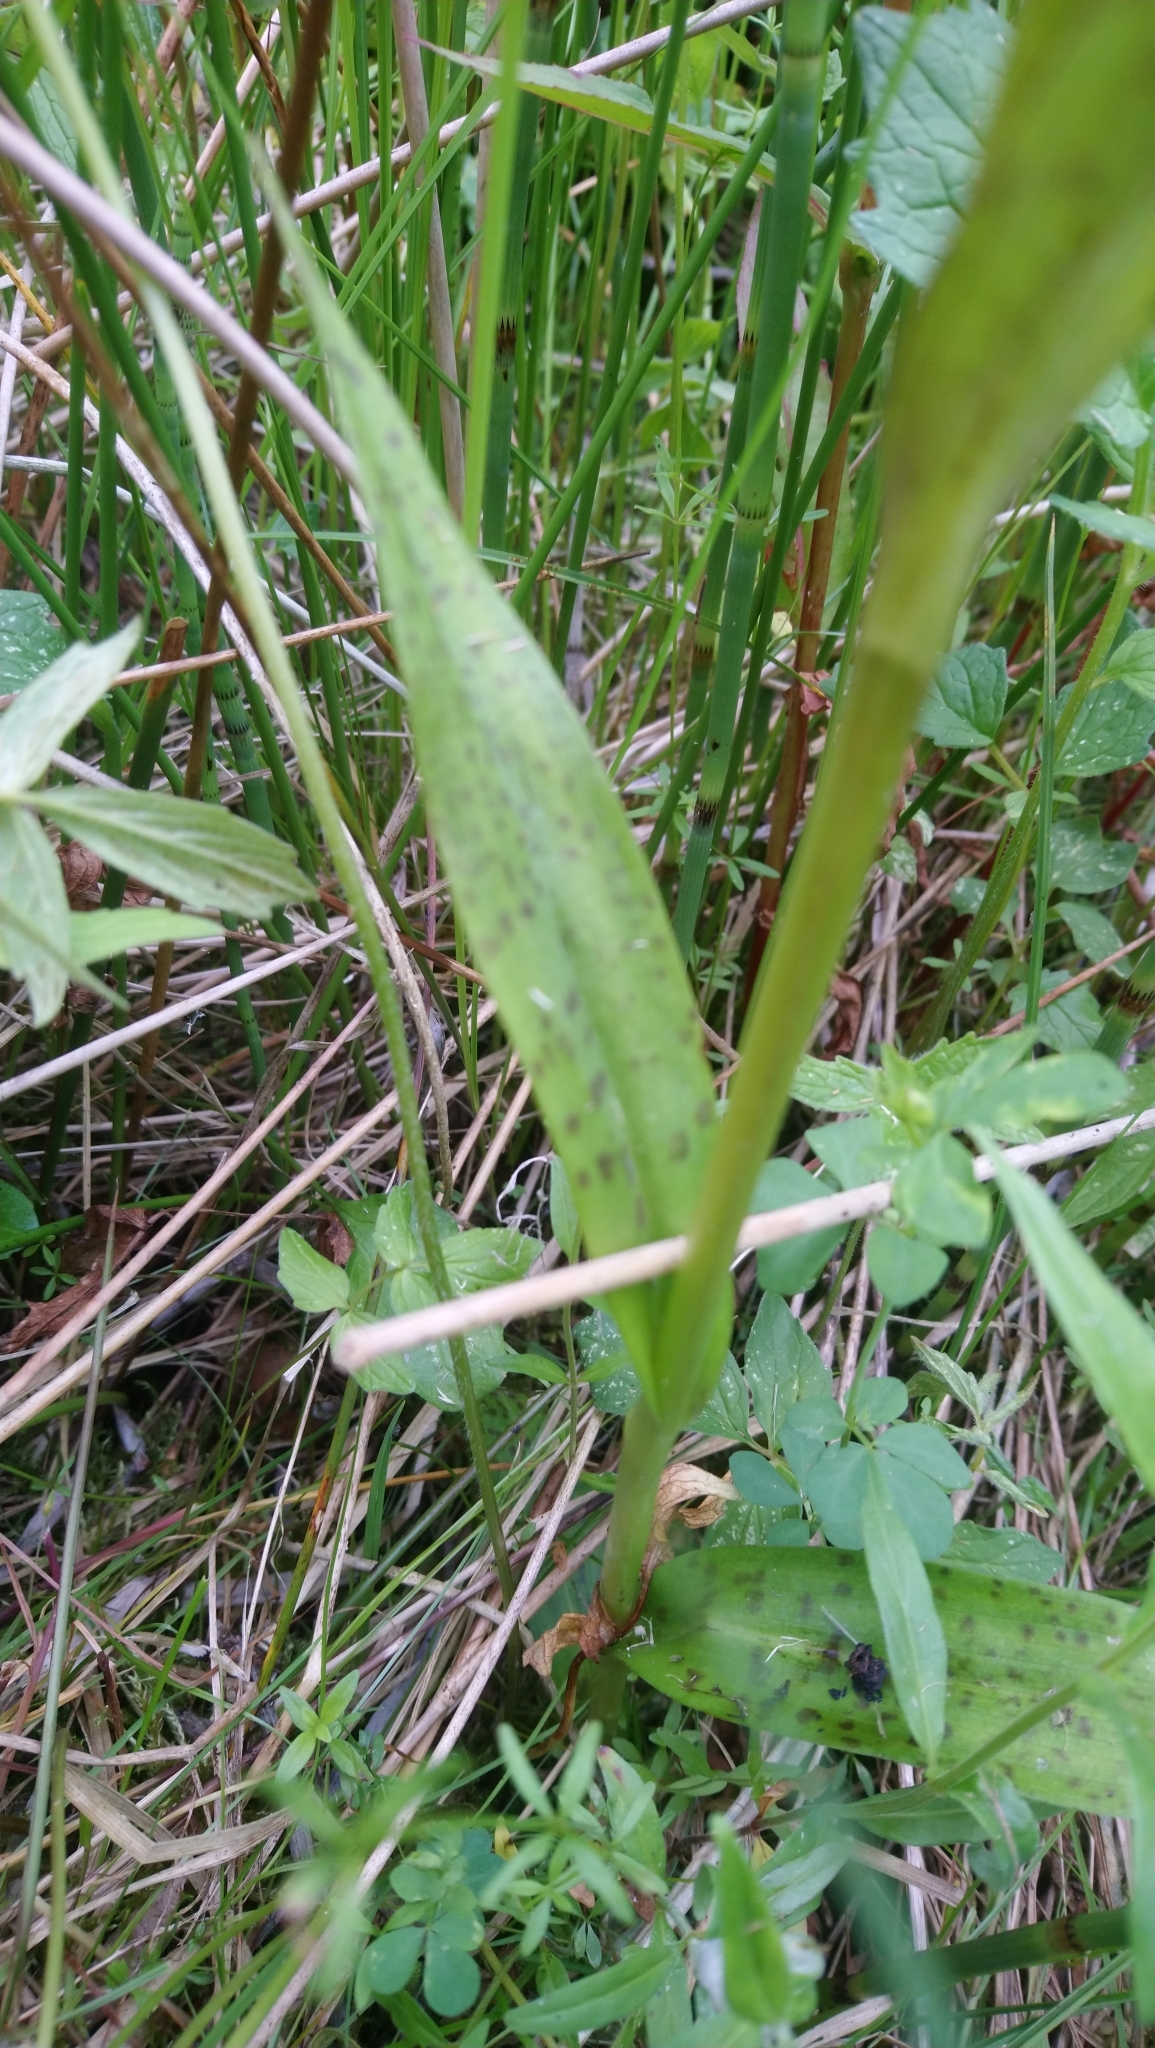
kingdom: Plantae
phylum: Tracheophyta
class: Liliopsida
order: Asparagales
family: Orchidaceae
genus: Dactylorhiza
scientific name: Dactylorhiza majalis
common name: Marsh orchid
